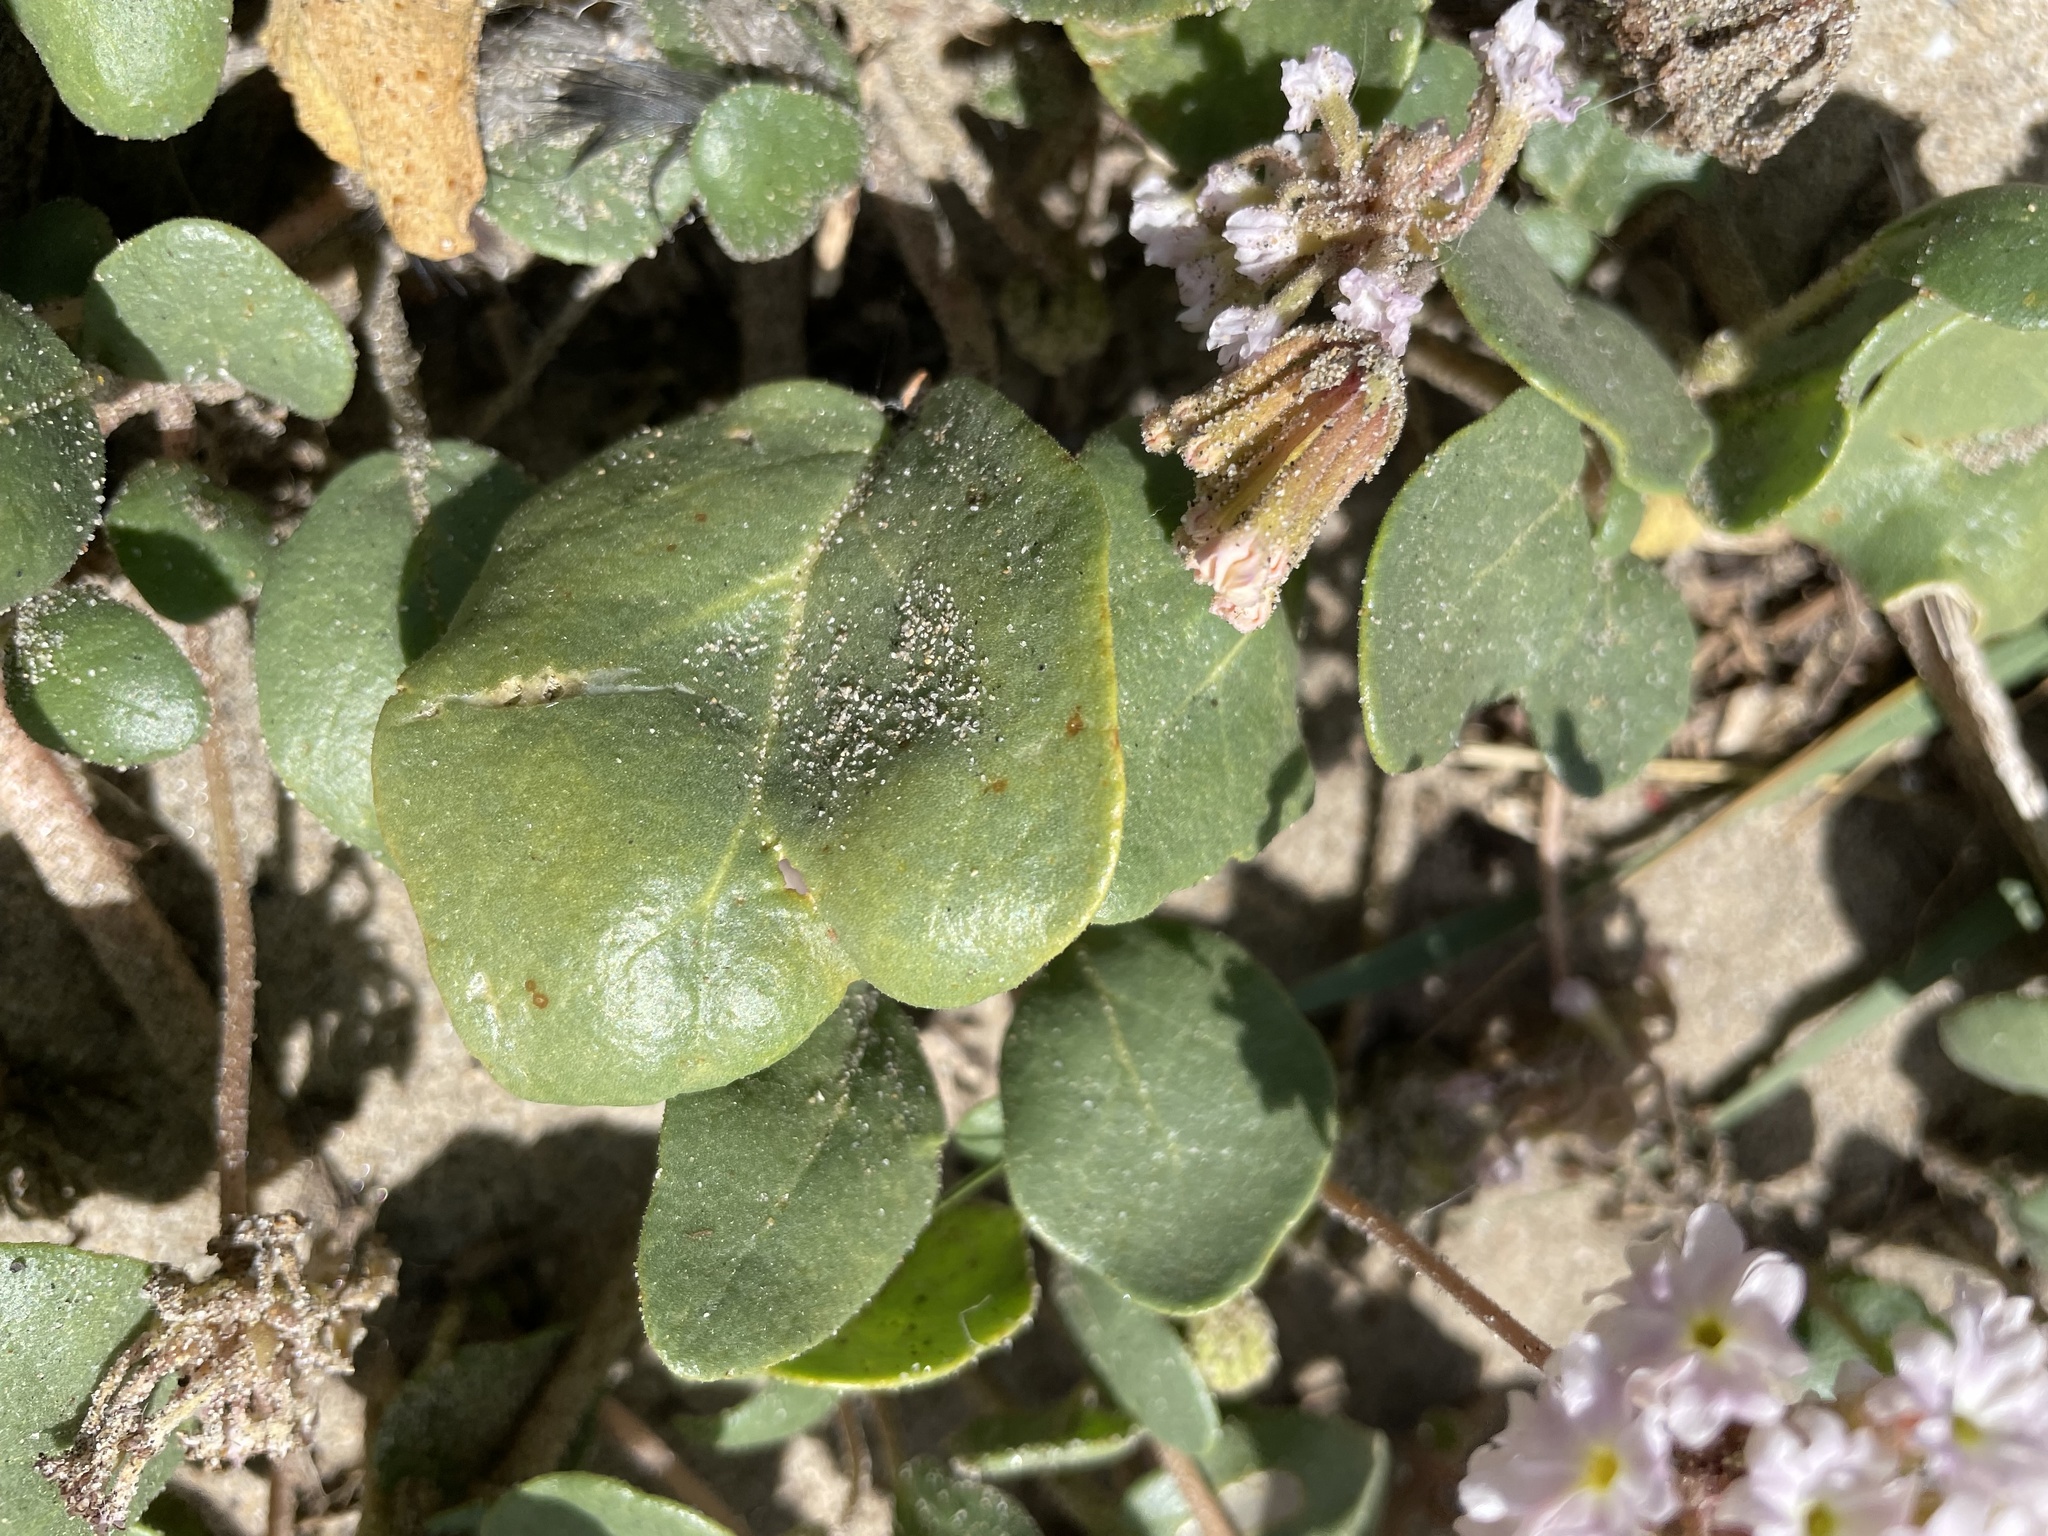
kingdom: Plantae
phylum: Tracheophyta
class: Magnoliopsida
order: Caryophyllales
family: Nyctaginaceae
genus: Abronia
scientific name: Abronia
